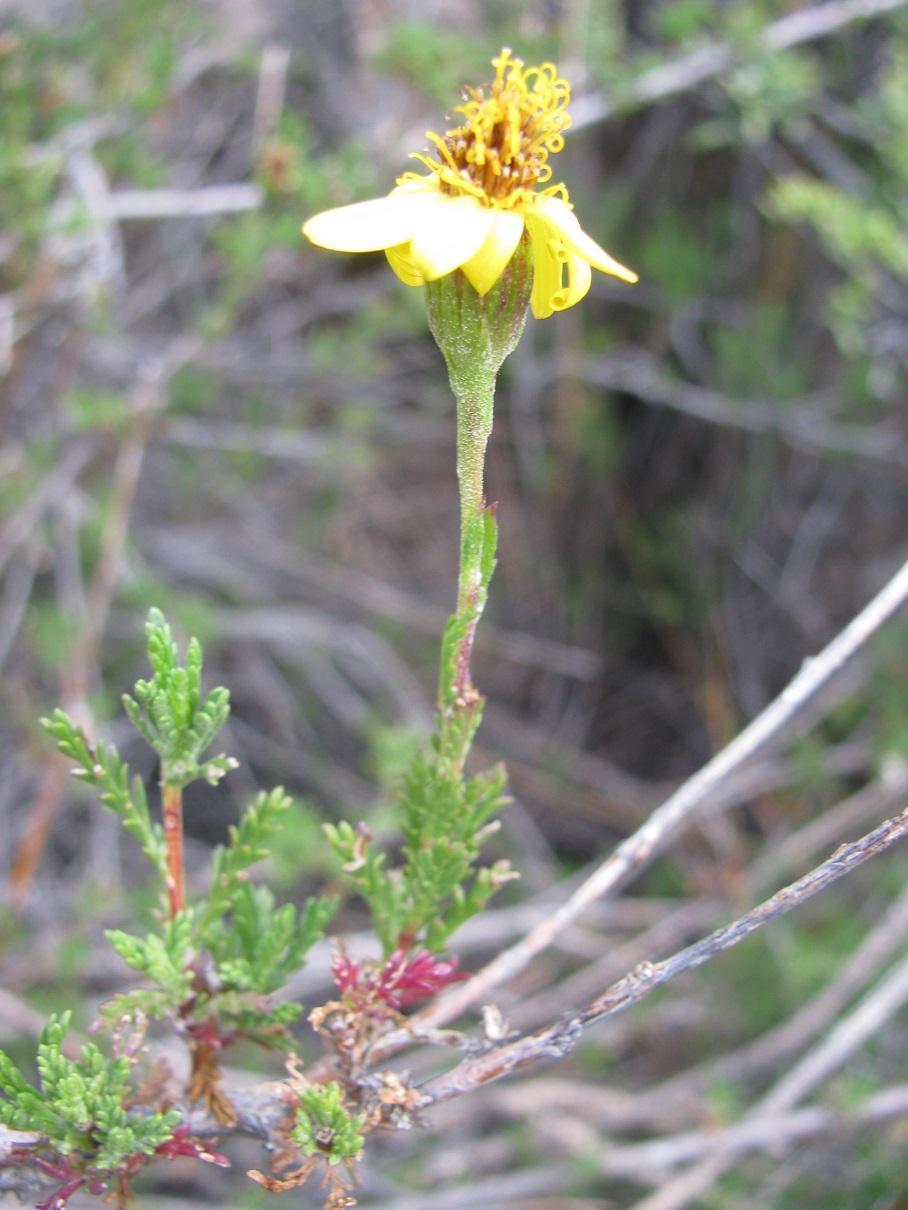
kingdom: Plantae
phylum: Tracheophyta
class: Magnoliopsida
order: Asterales
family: Asteraceae
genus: Senecio
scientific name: Senecio achilleifolius
